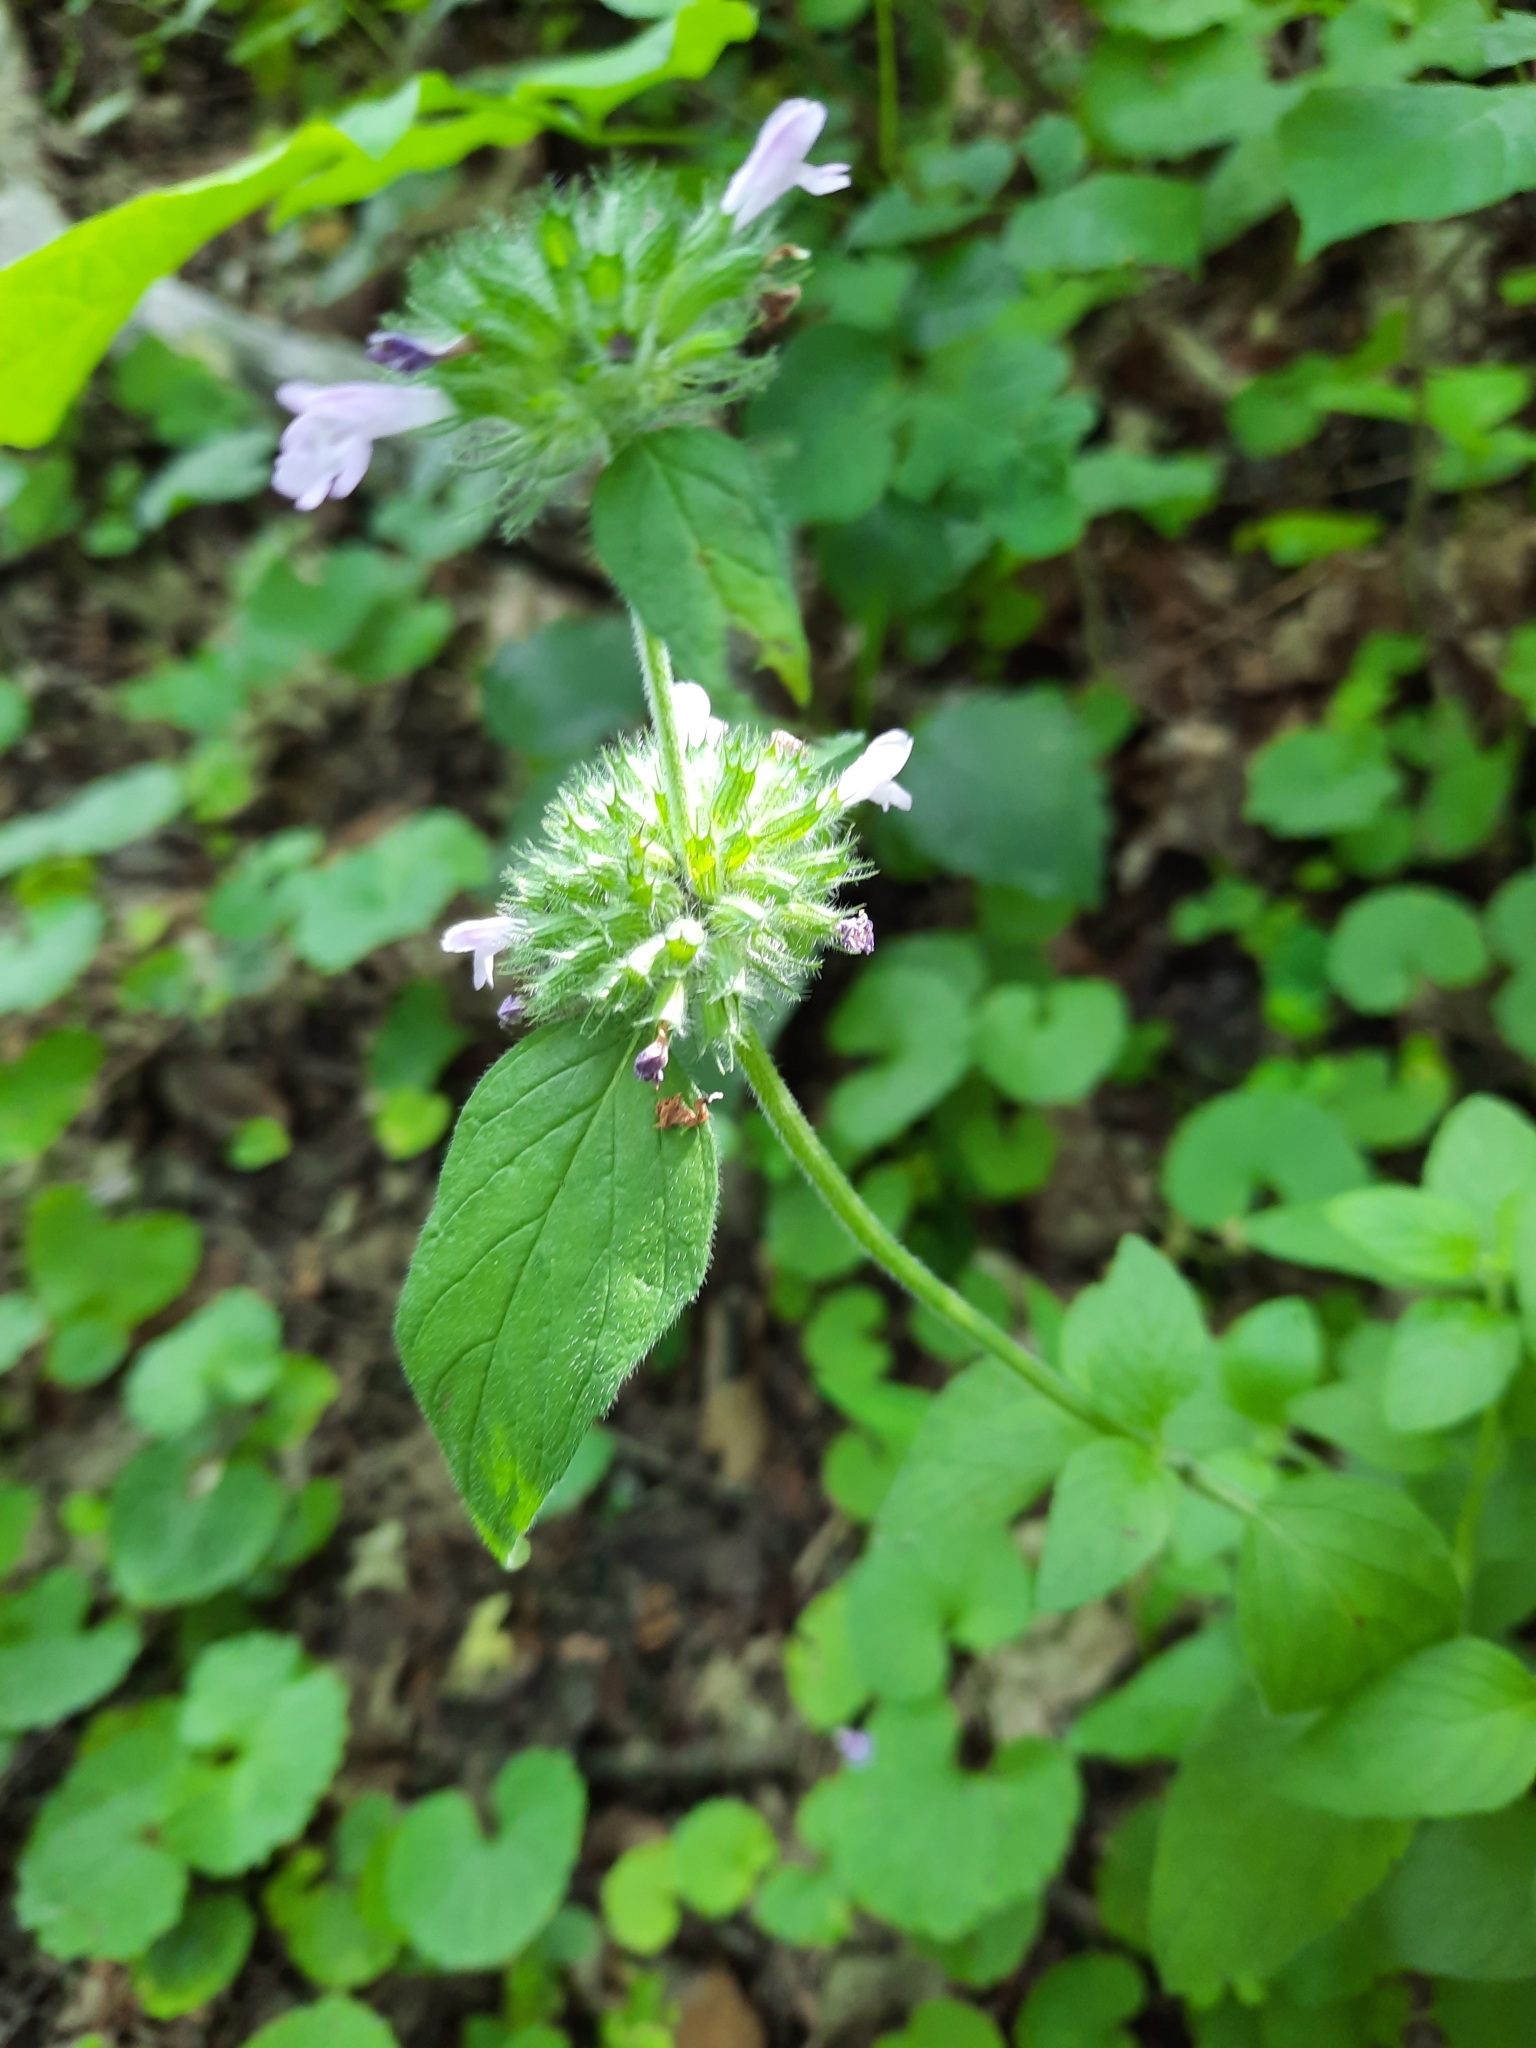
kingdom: Plantae
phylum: Tracheophyta
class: Magnoliopsida
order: Lamiales
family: Lamiaceae
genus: Clinopodium
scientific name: Clinopodium vulgare
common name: Wild basil
